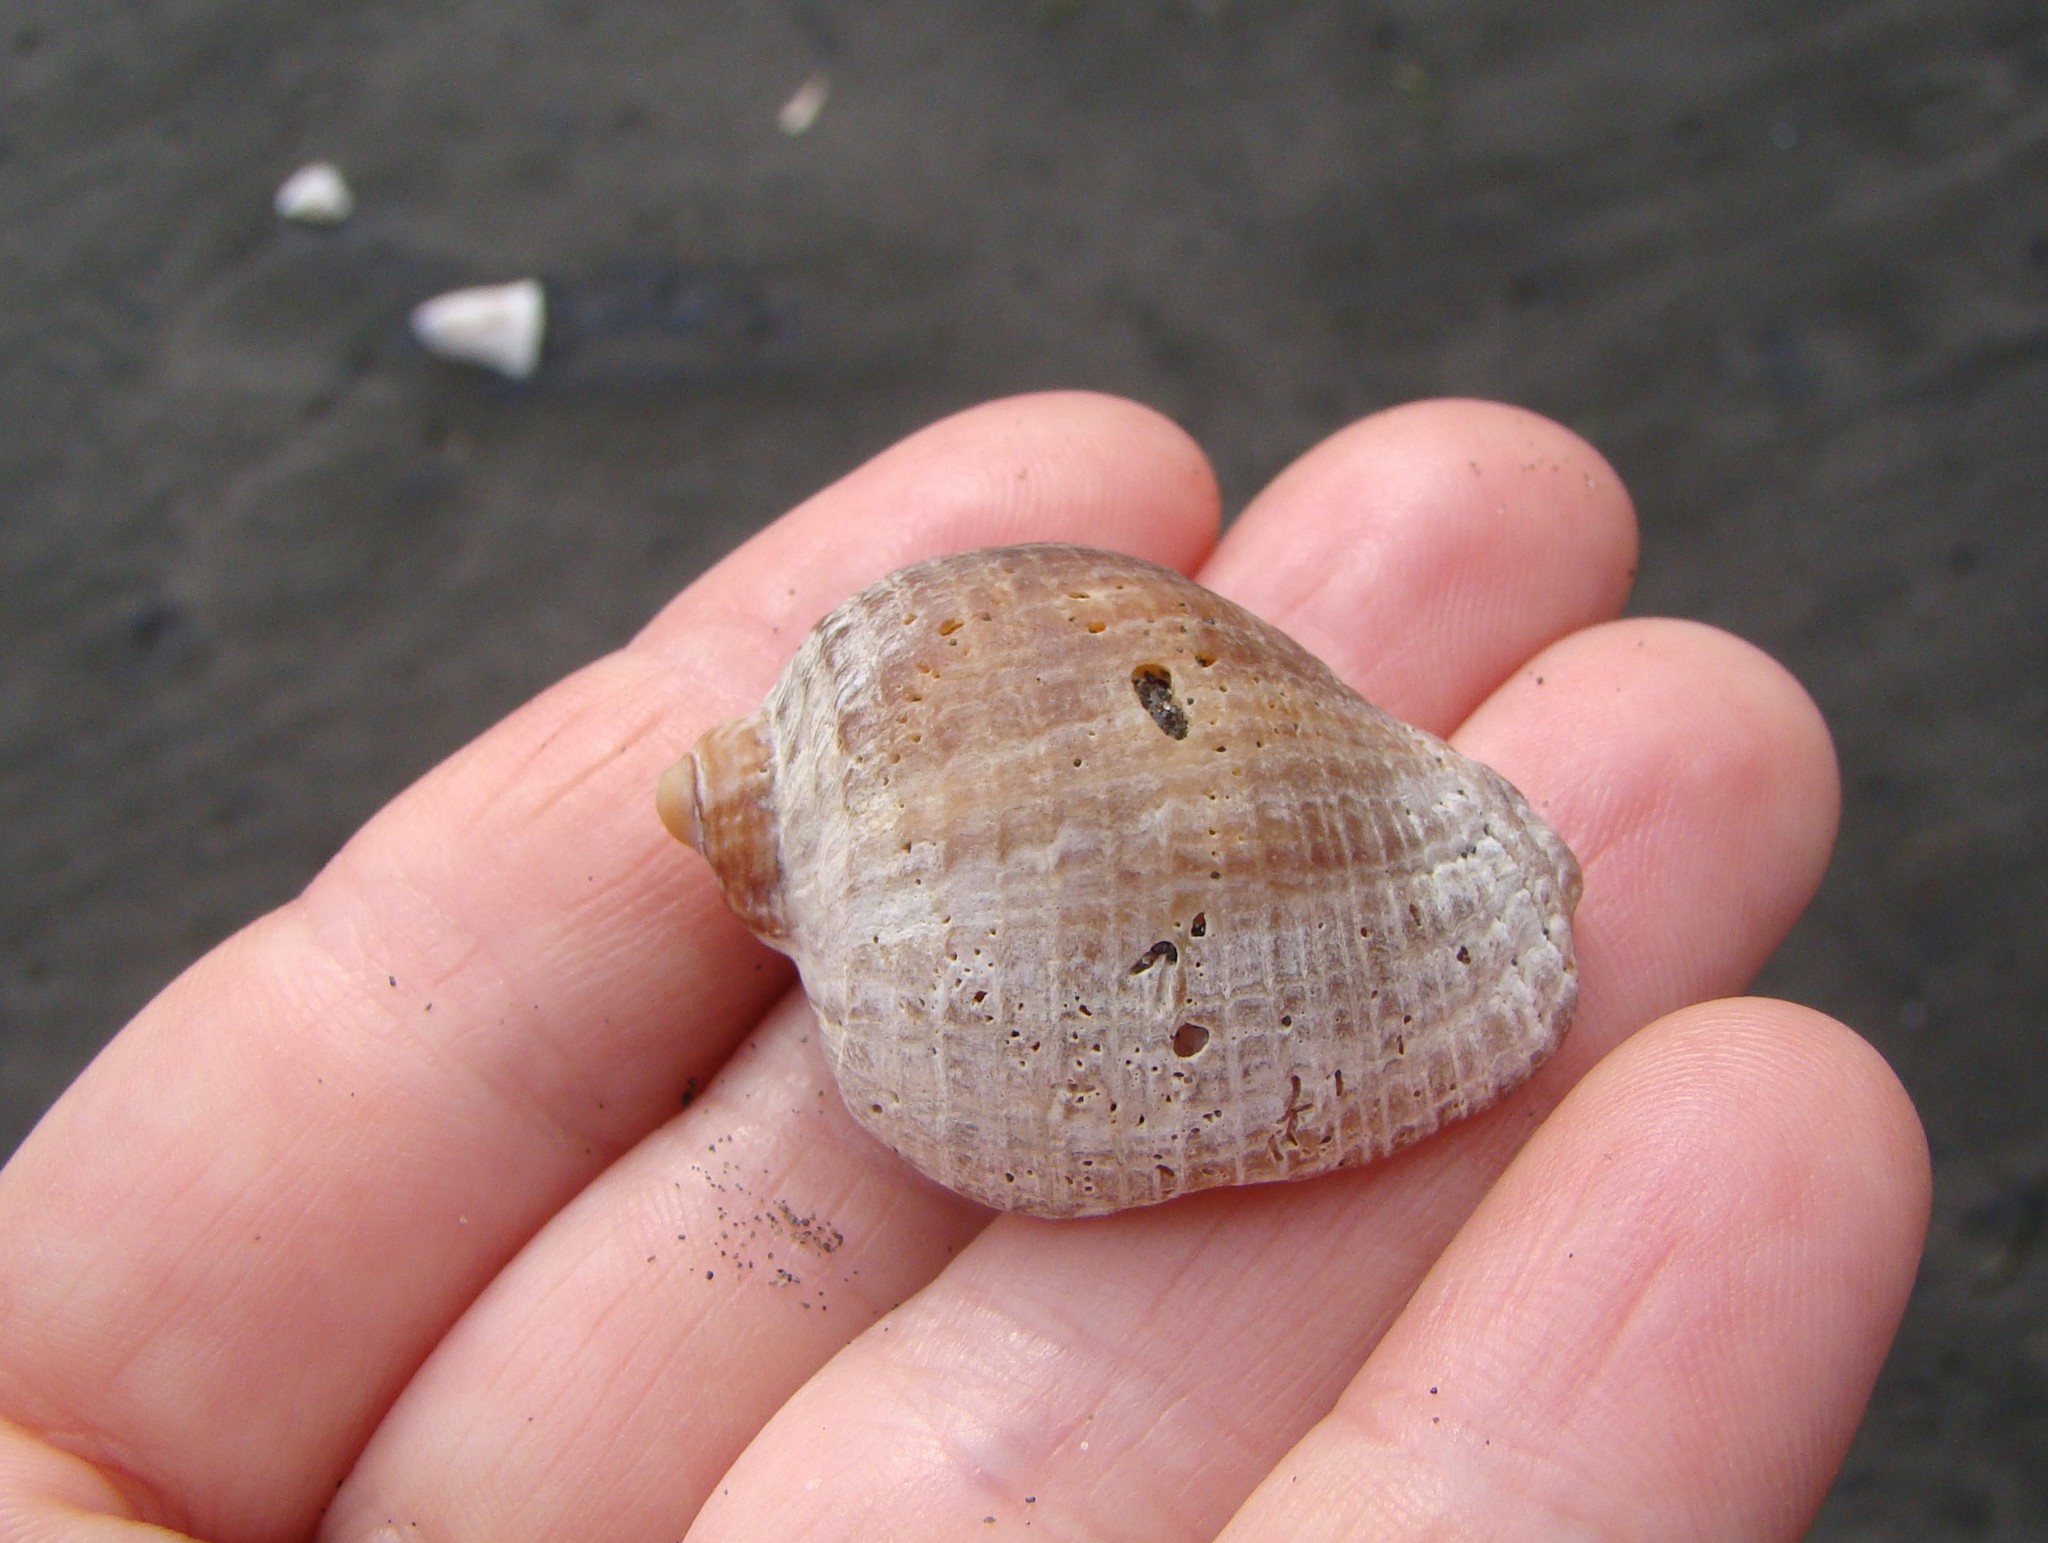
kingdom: Animalia
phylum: Mollusca
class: Gastropoda
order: Neogastropoda
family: Muricidae
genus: Dicathais
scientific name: Dicathais orbita
